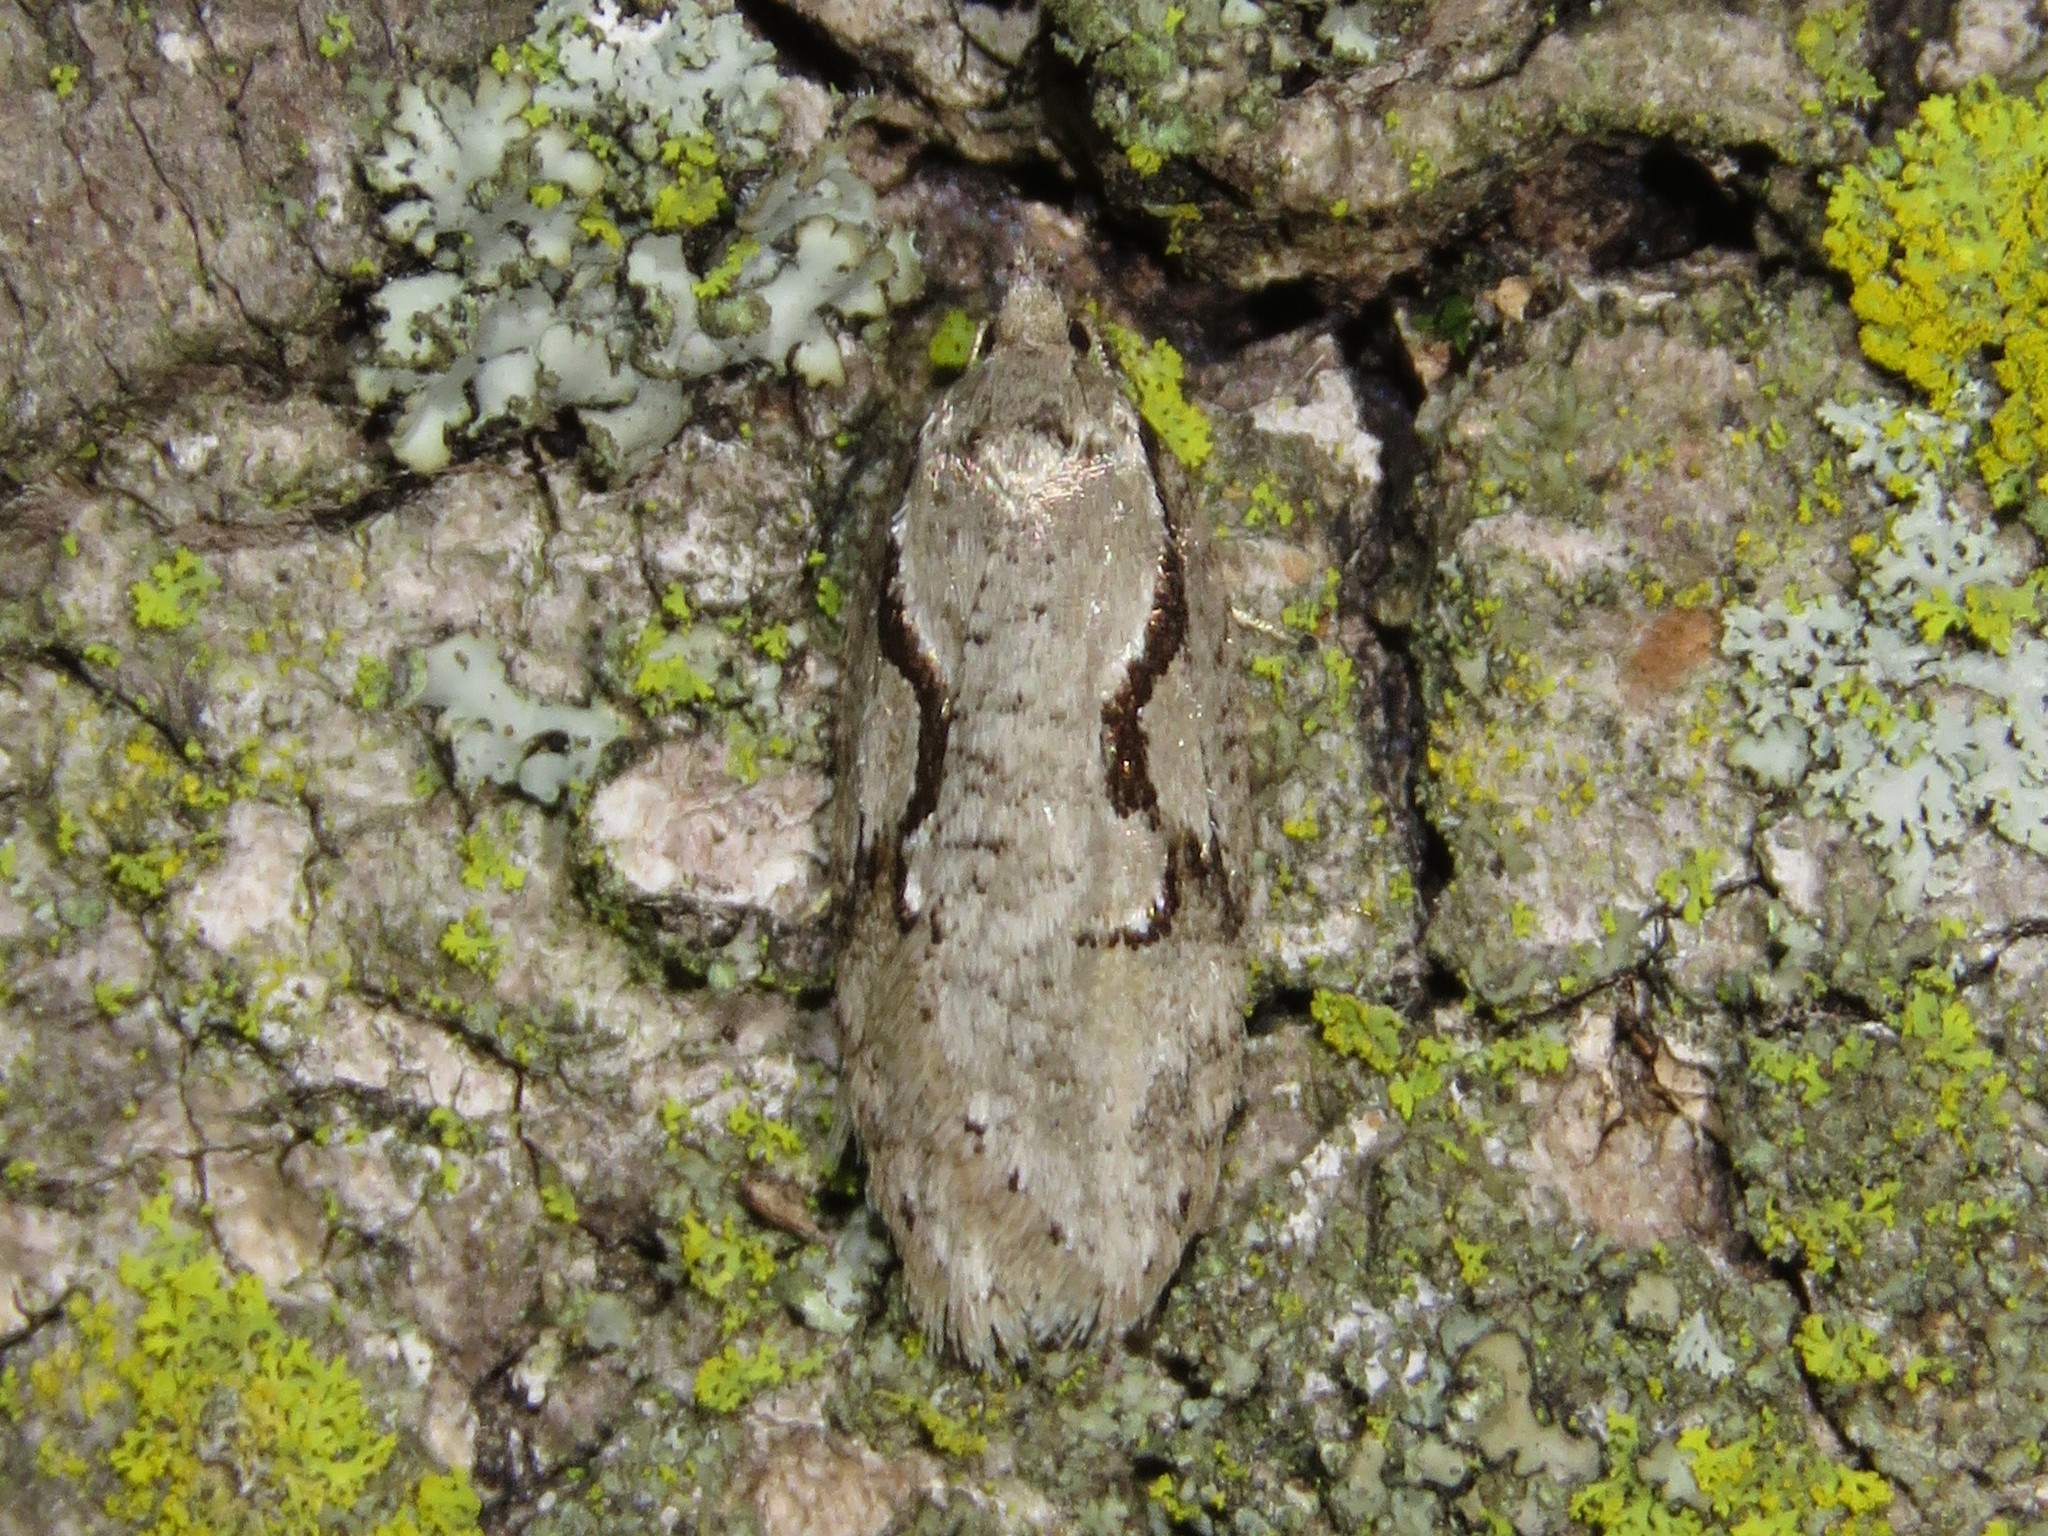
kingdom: Animalia
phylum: Arthropoda
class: Insecta
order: Lepidoptera
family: Depressariidae
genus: Semioscopis
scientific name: Semioscopis packardella
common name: Packard's concealer moth
